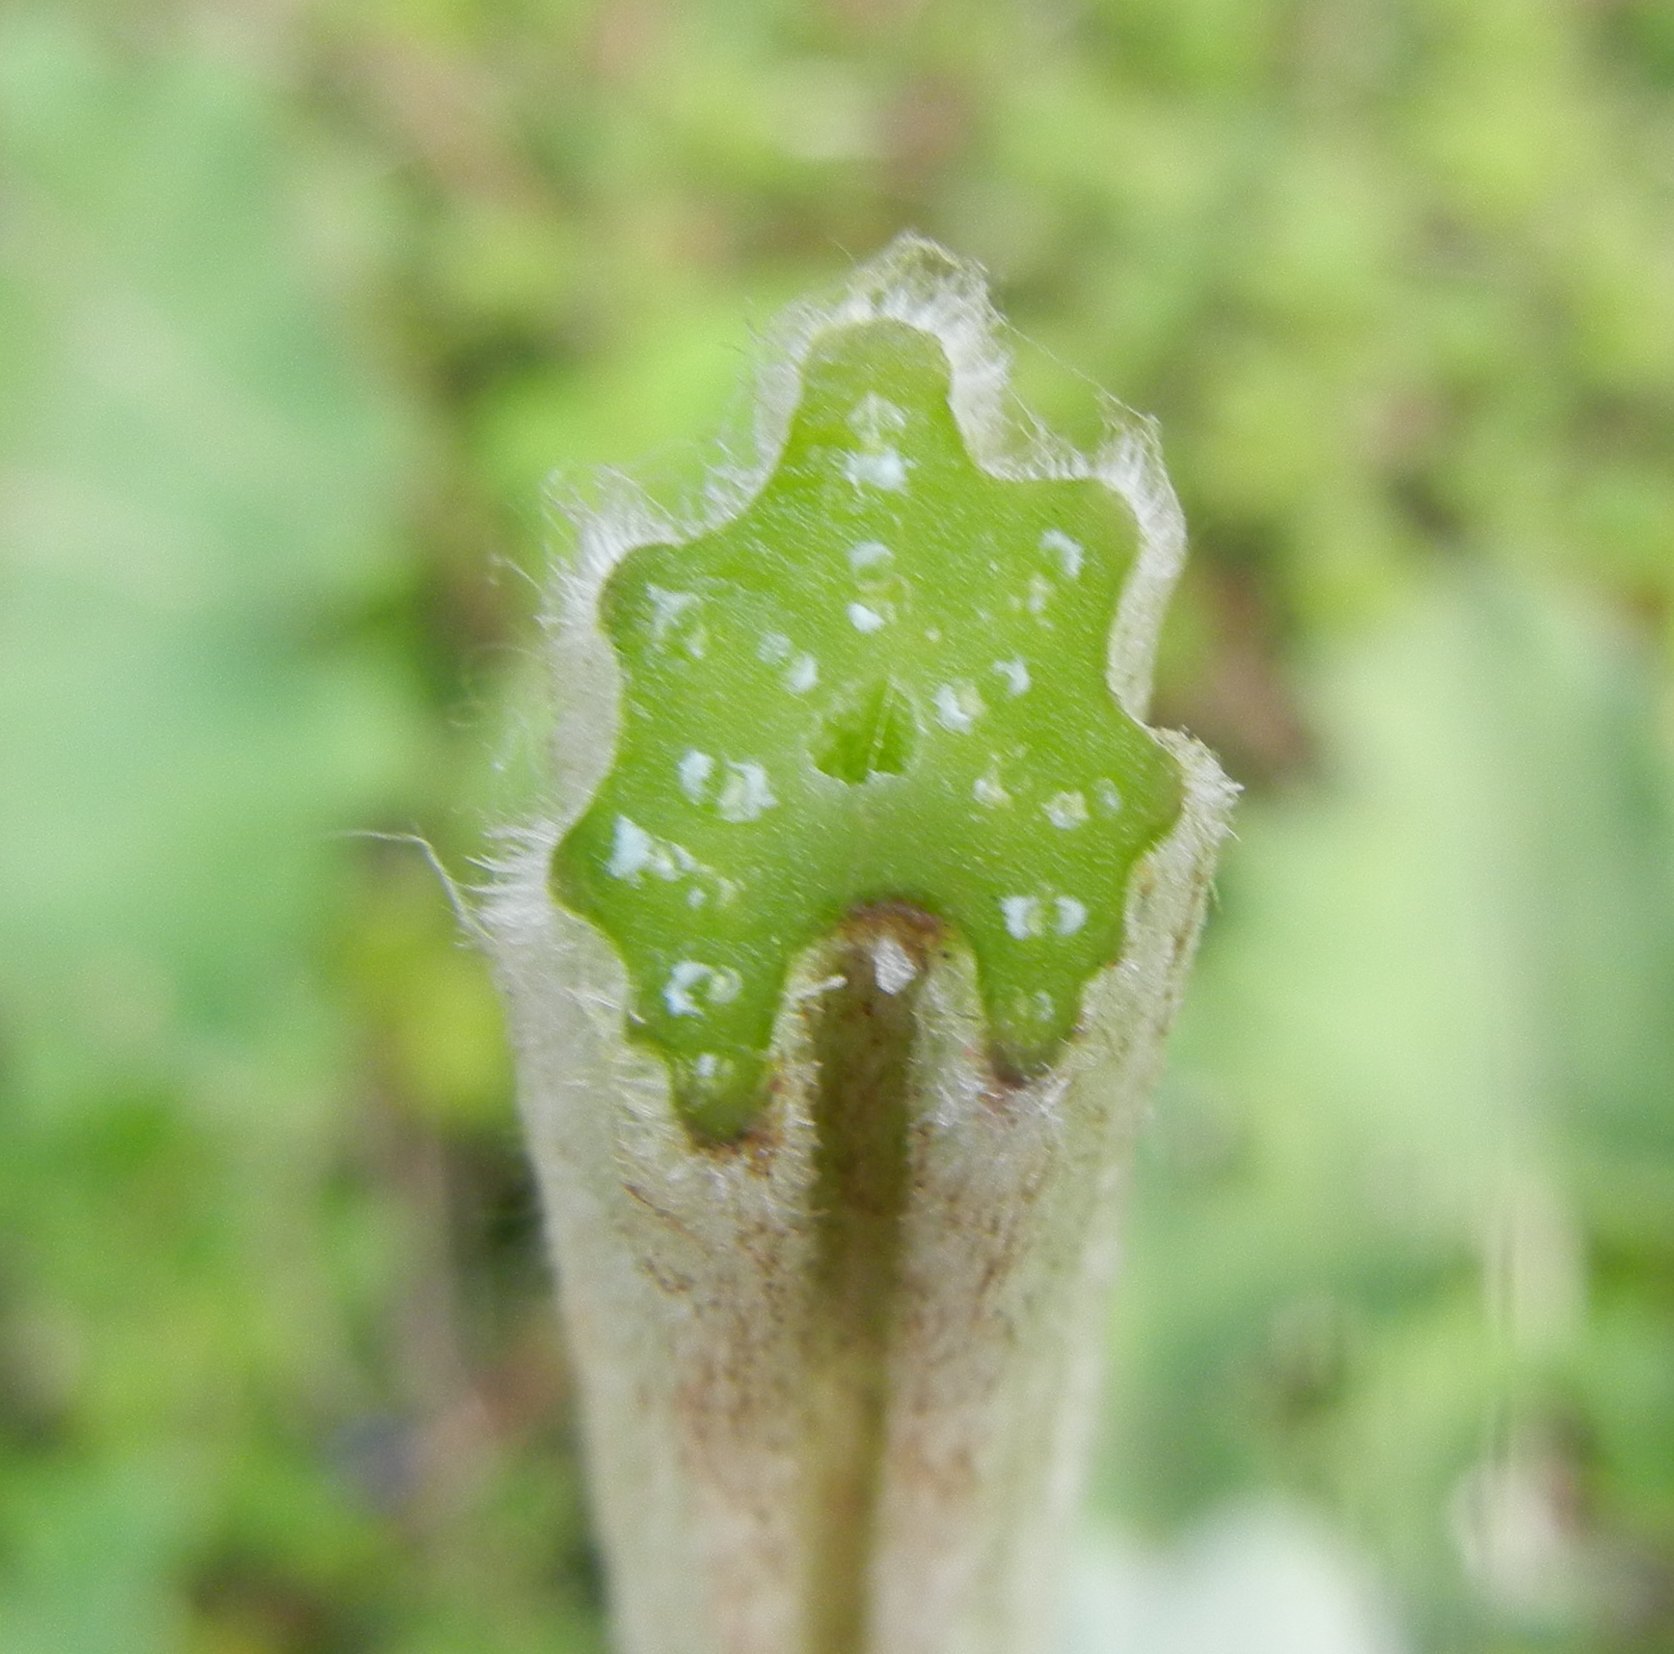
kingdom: Plantae
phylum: Tracheophyta
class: Magnoliopsida
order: Asterales
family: Asteraceae
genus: Arctium
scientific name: Arctium minus
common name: Lesser burdock
